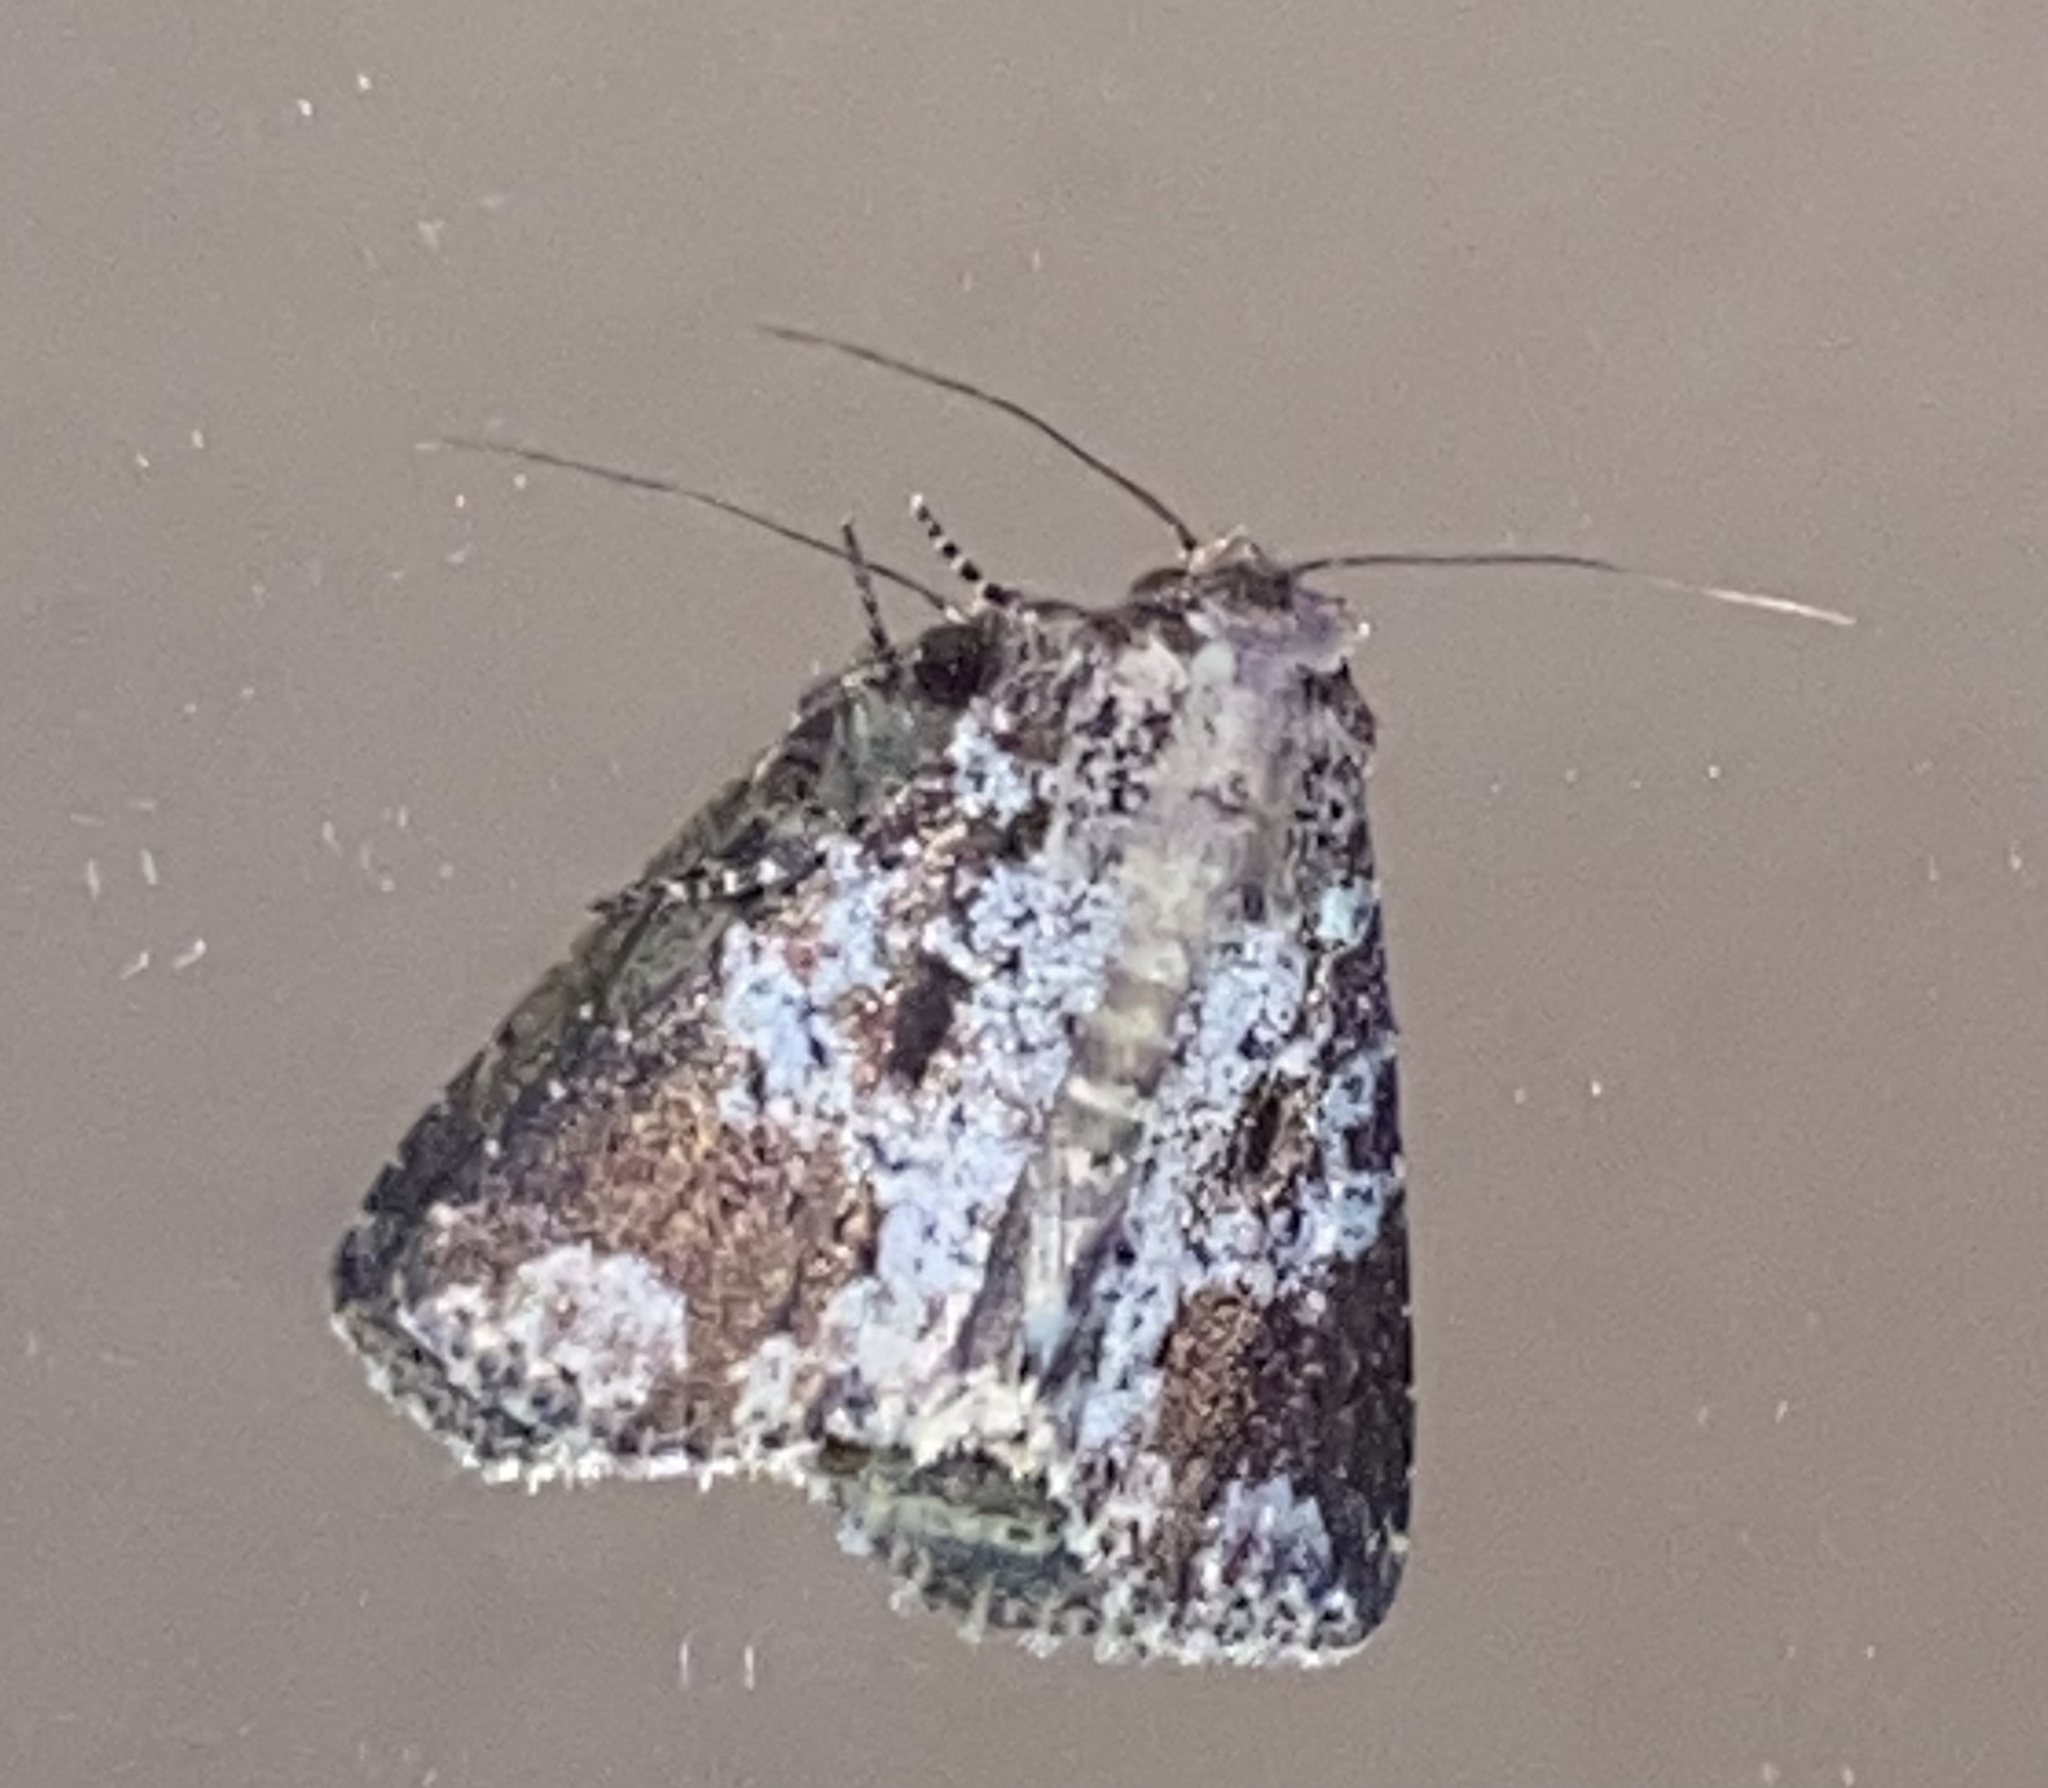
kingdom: Animalia
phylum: Arthropoda
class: Insecta
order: Lepidoptera
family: Noctuidae
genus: Condica
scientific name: Condica cupentia
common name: Splotched groundling
